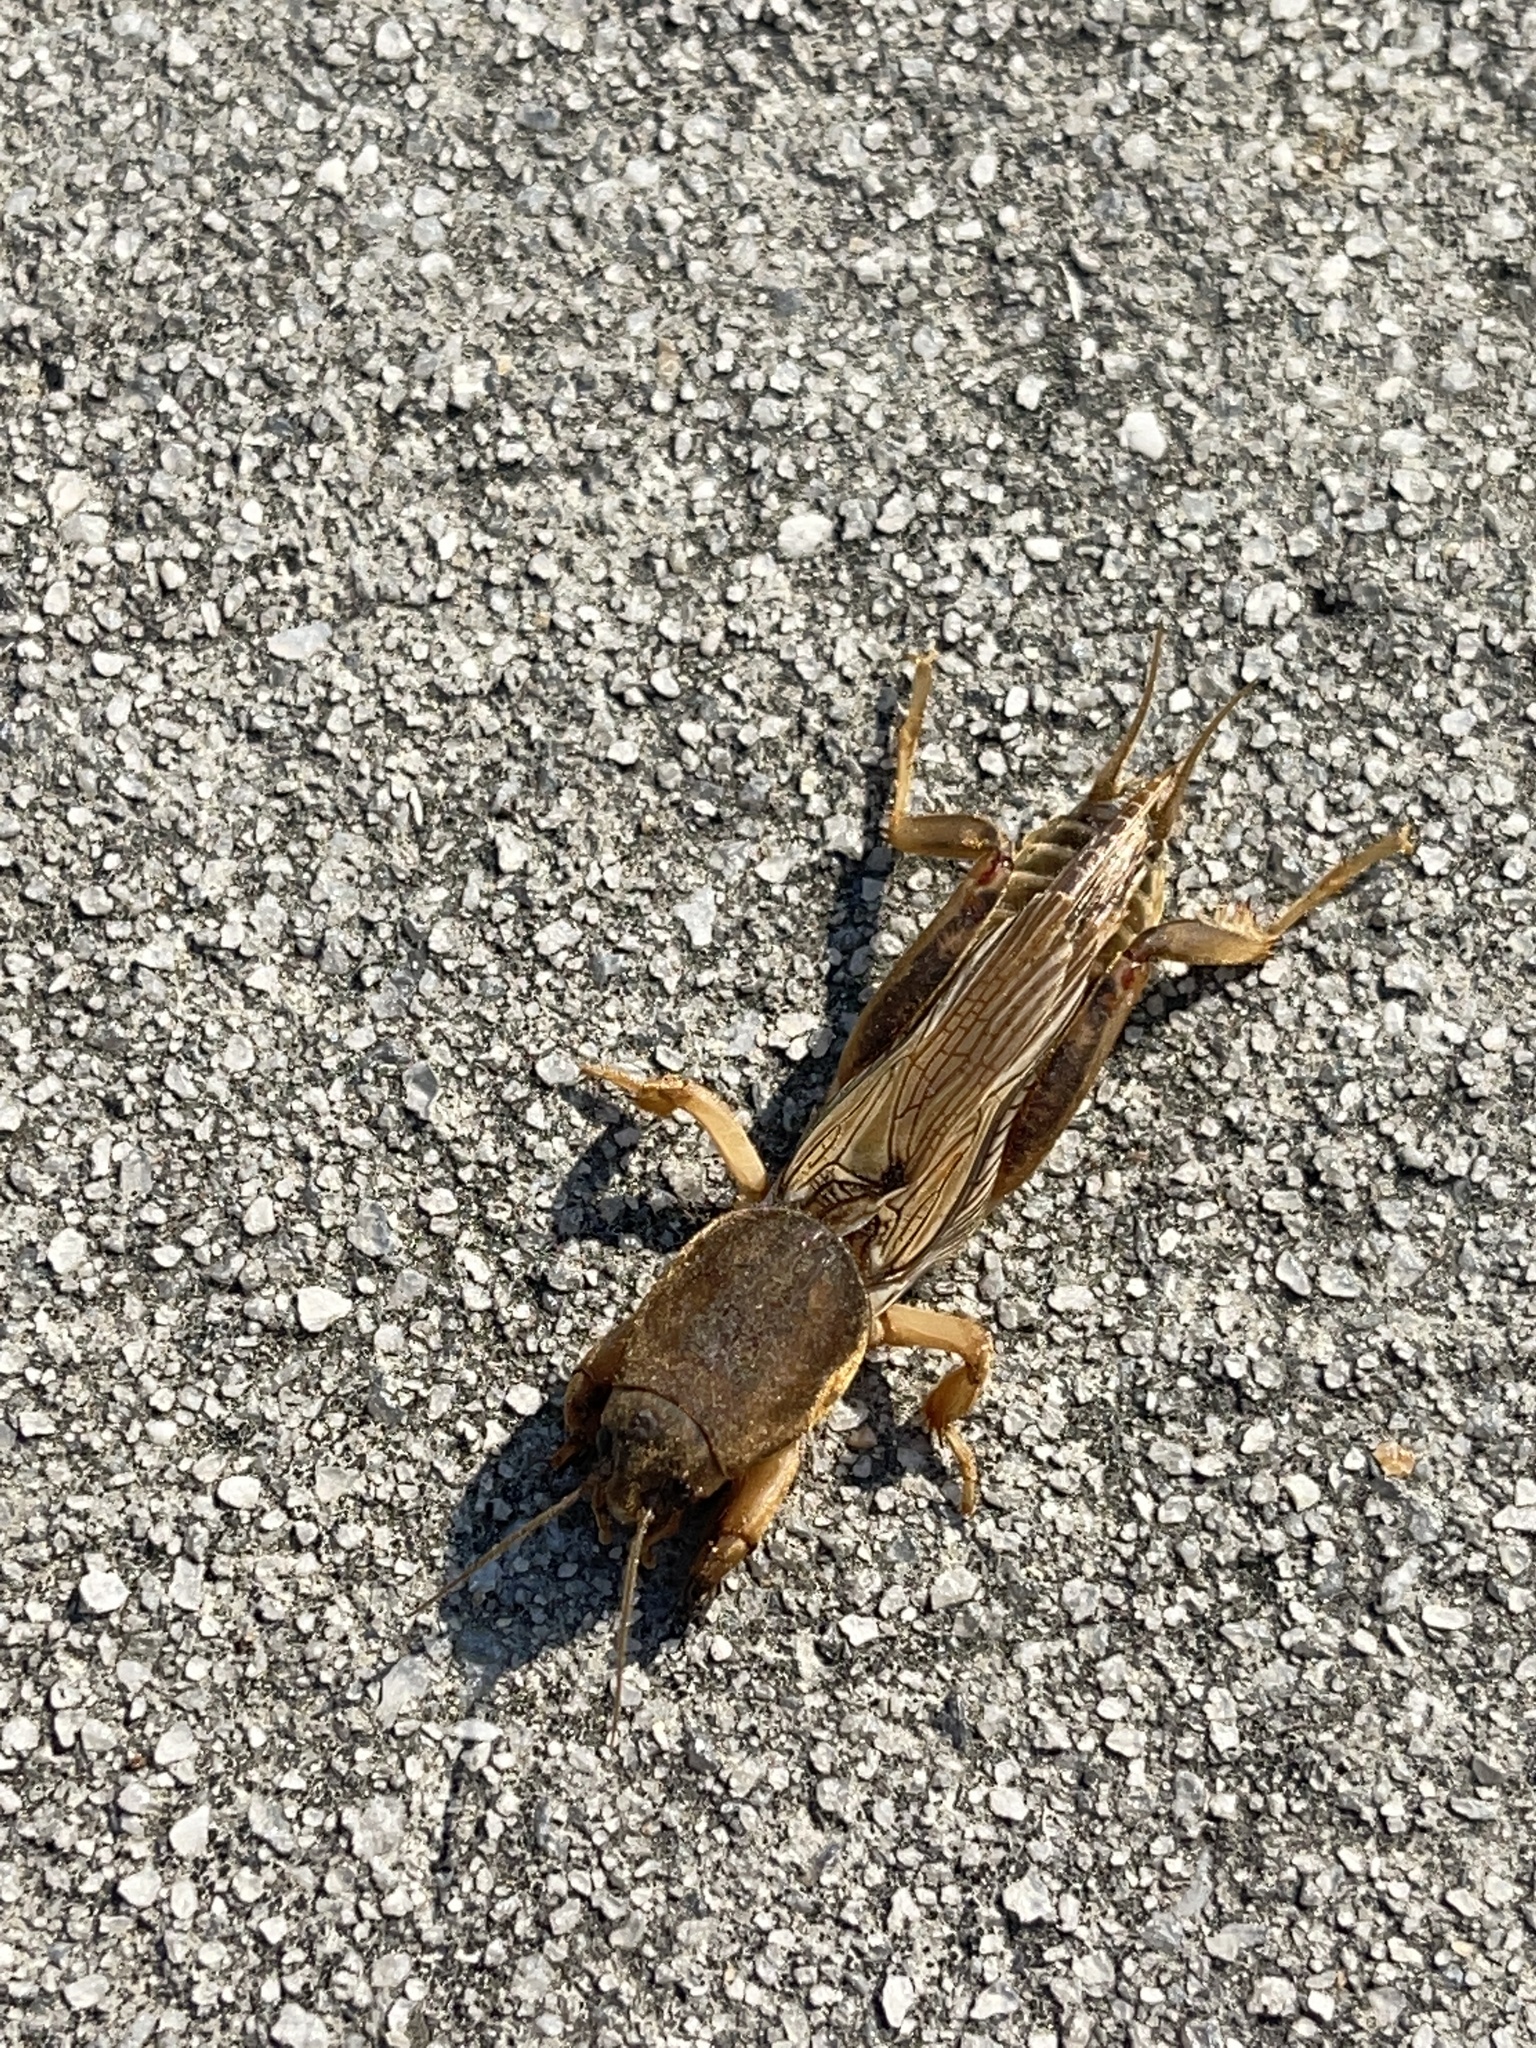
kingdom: Animalia
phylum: Arthropoda
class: Insecta
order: Orthoptera
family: Gryllotalpidae
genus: Neoscapteriscus
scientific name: Neoscapteriscus vicinus
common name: Tawny mole cricket
